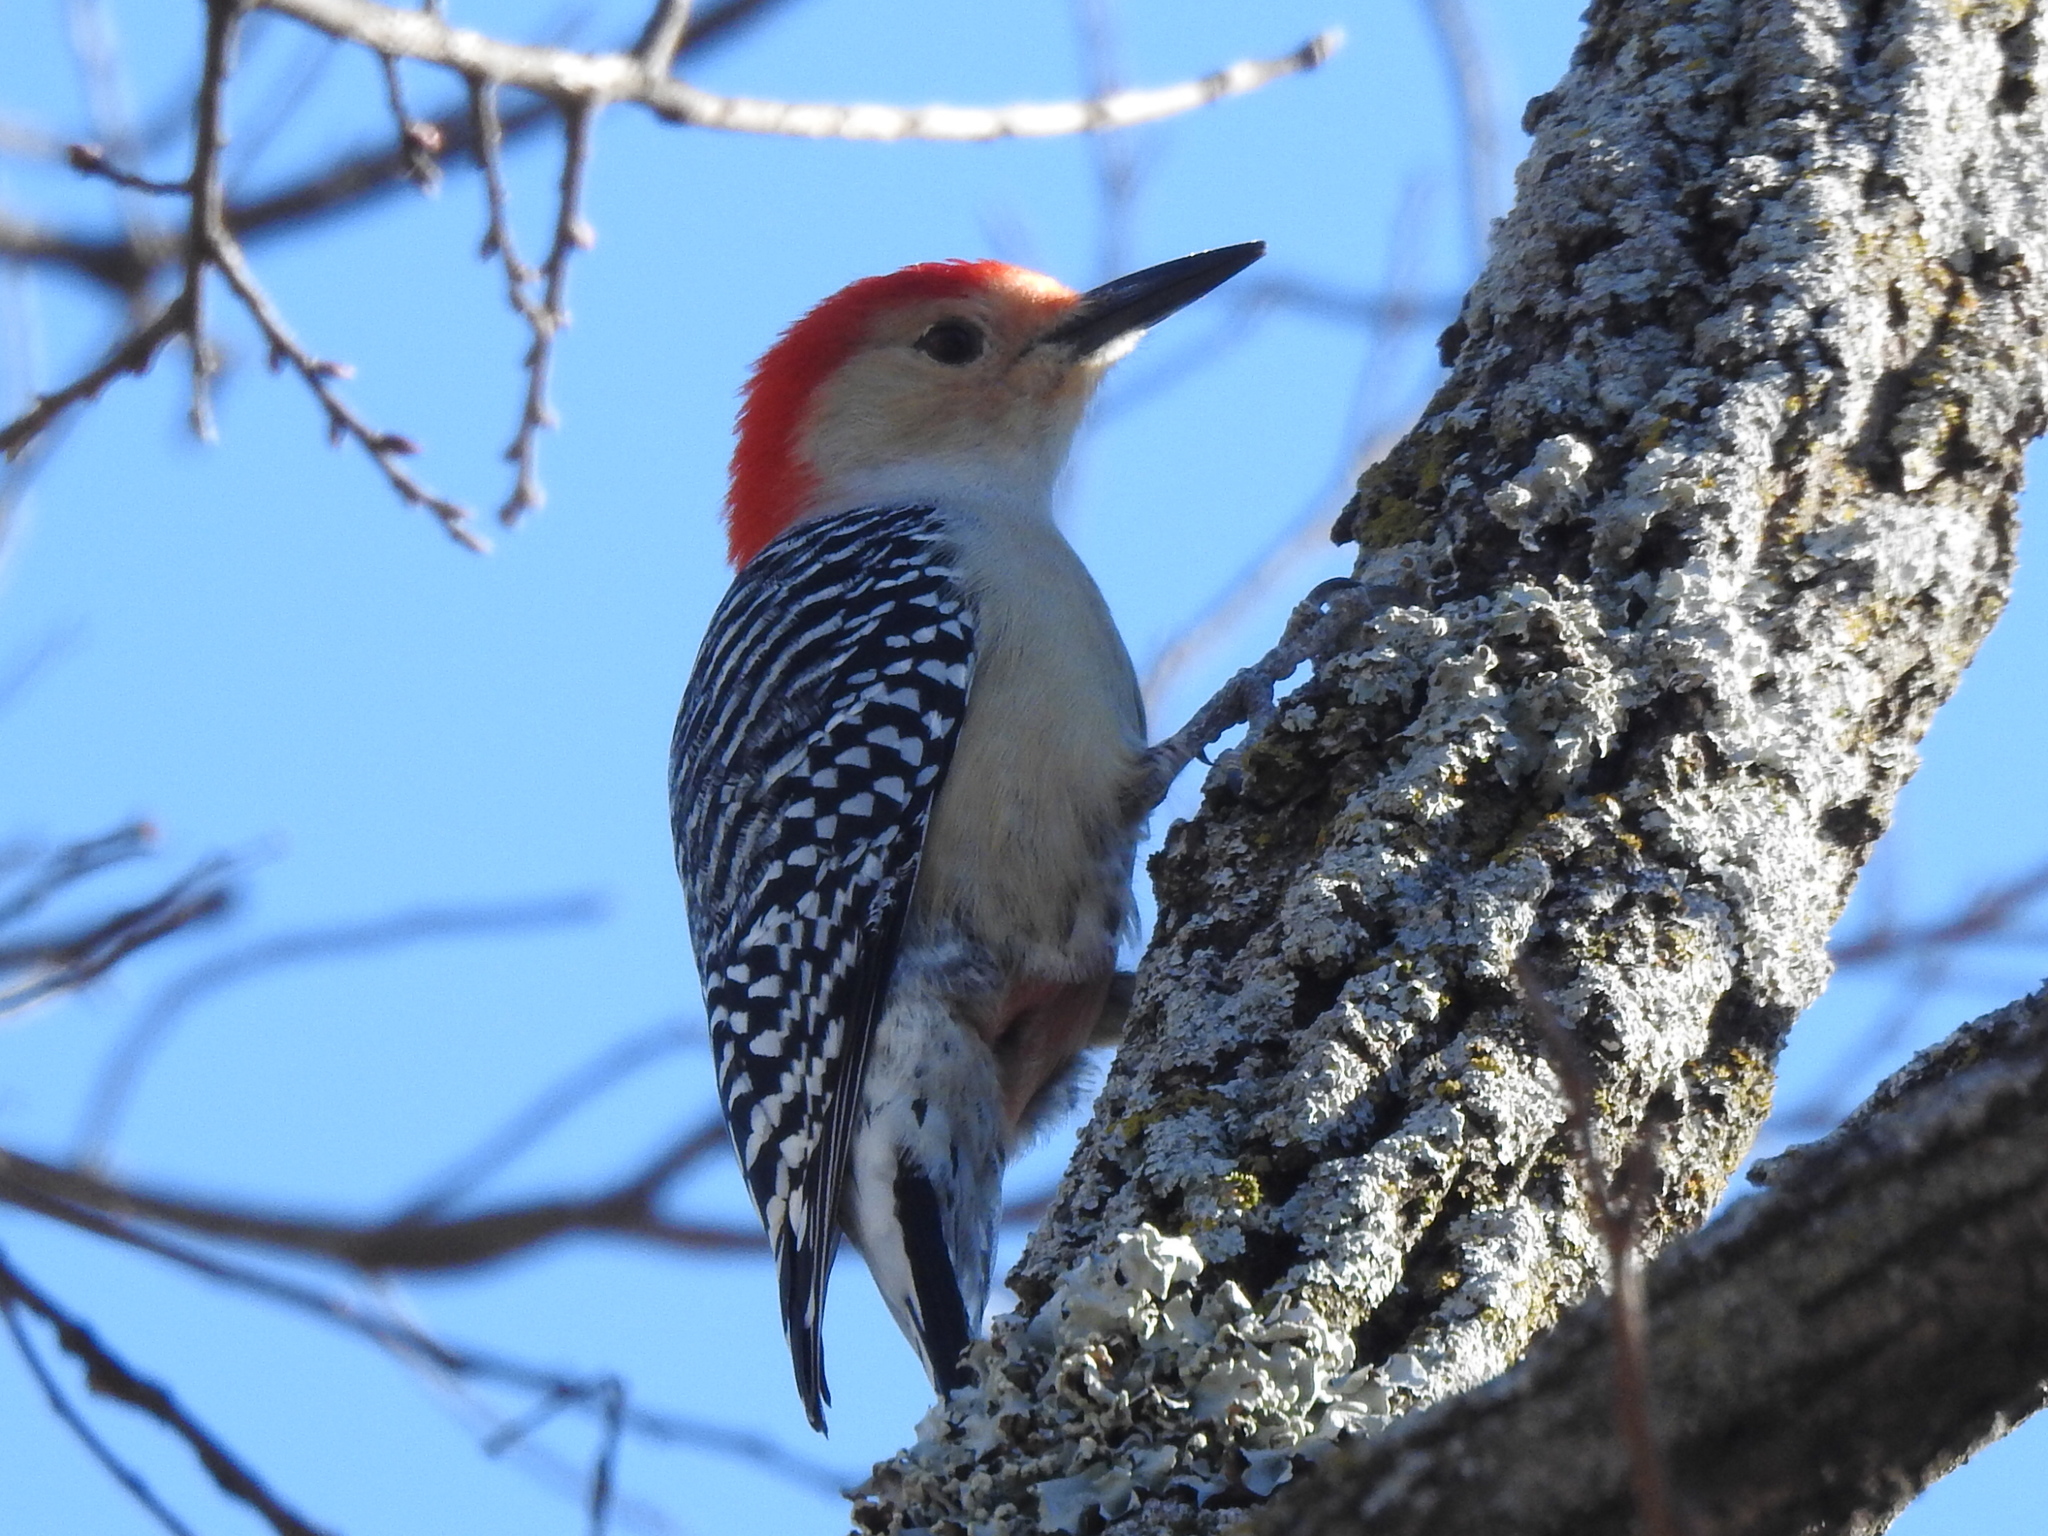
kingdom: Animalia
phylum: Chordata
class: Aves
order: Piciformes
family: Picidae
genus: Melanerpes
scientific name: Melanerpes carolinus
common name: Red-bellied woodpecker
